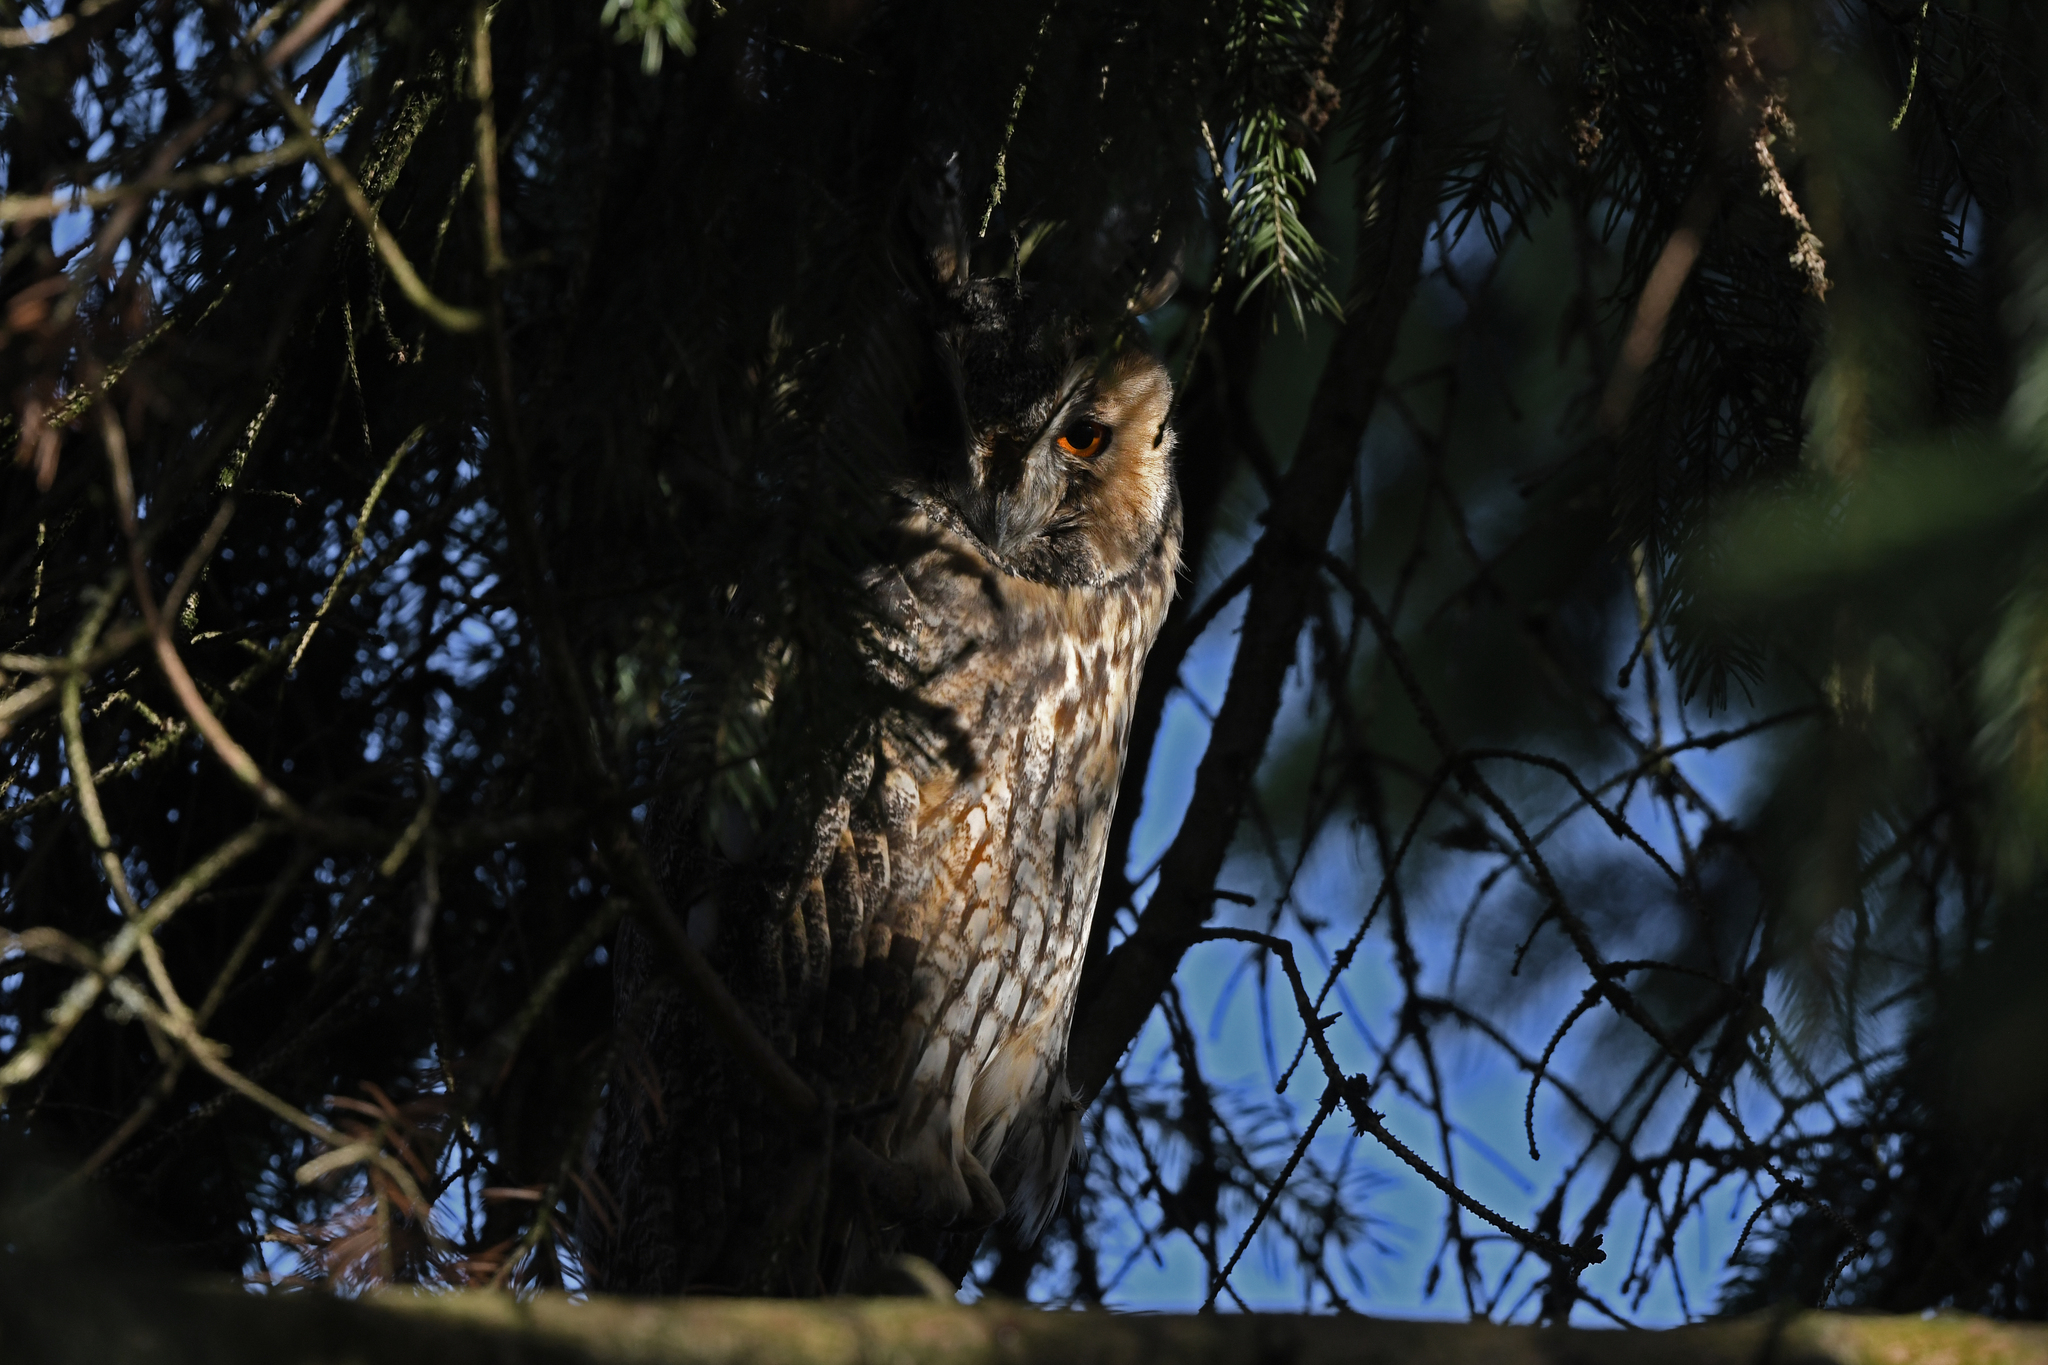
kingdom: Animalia
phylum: Chordata
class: Aves
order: Strigiformes
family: Strigidae
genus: Asio
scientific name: Asio otus
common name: Long-eared owl
